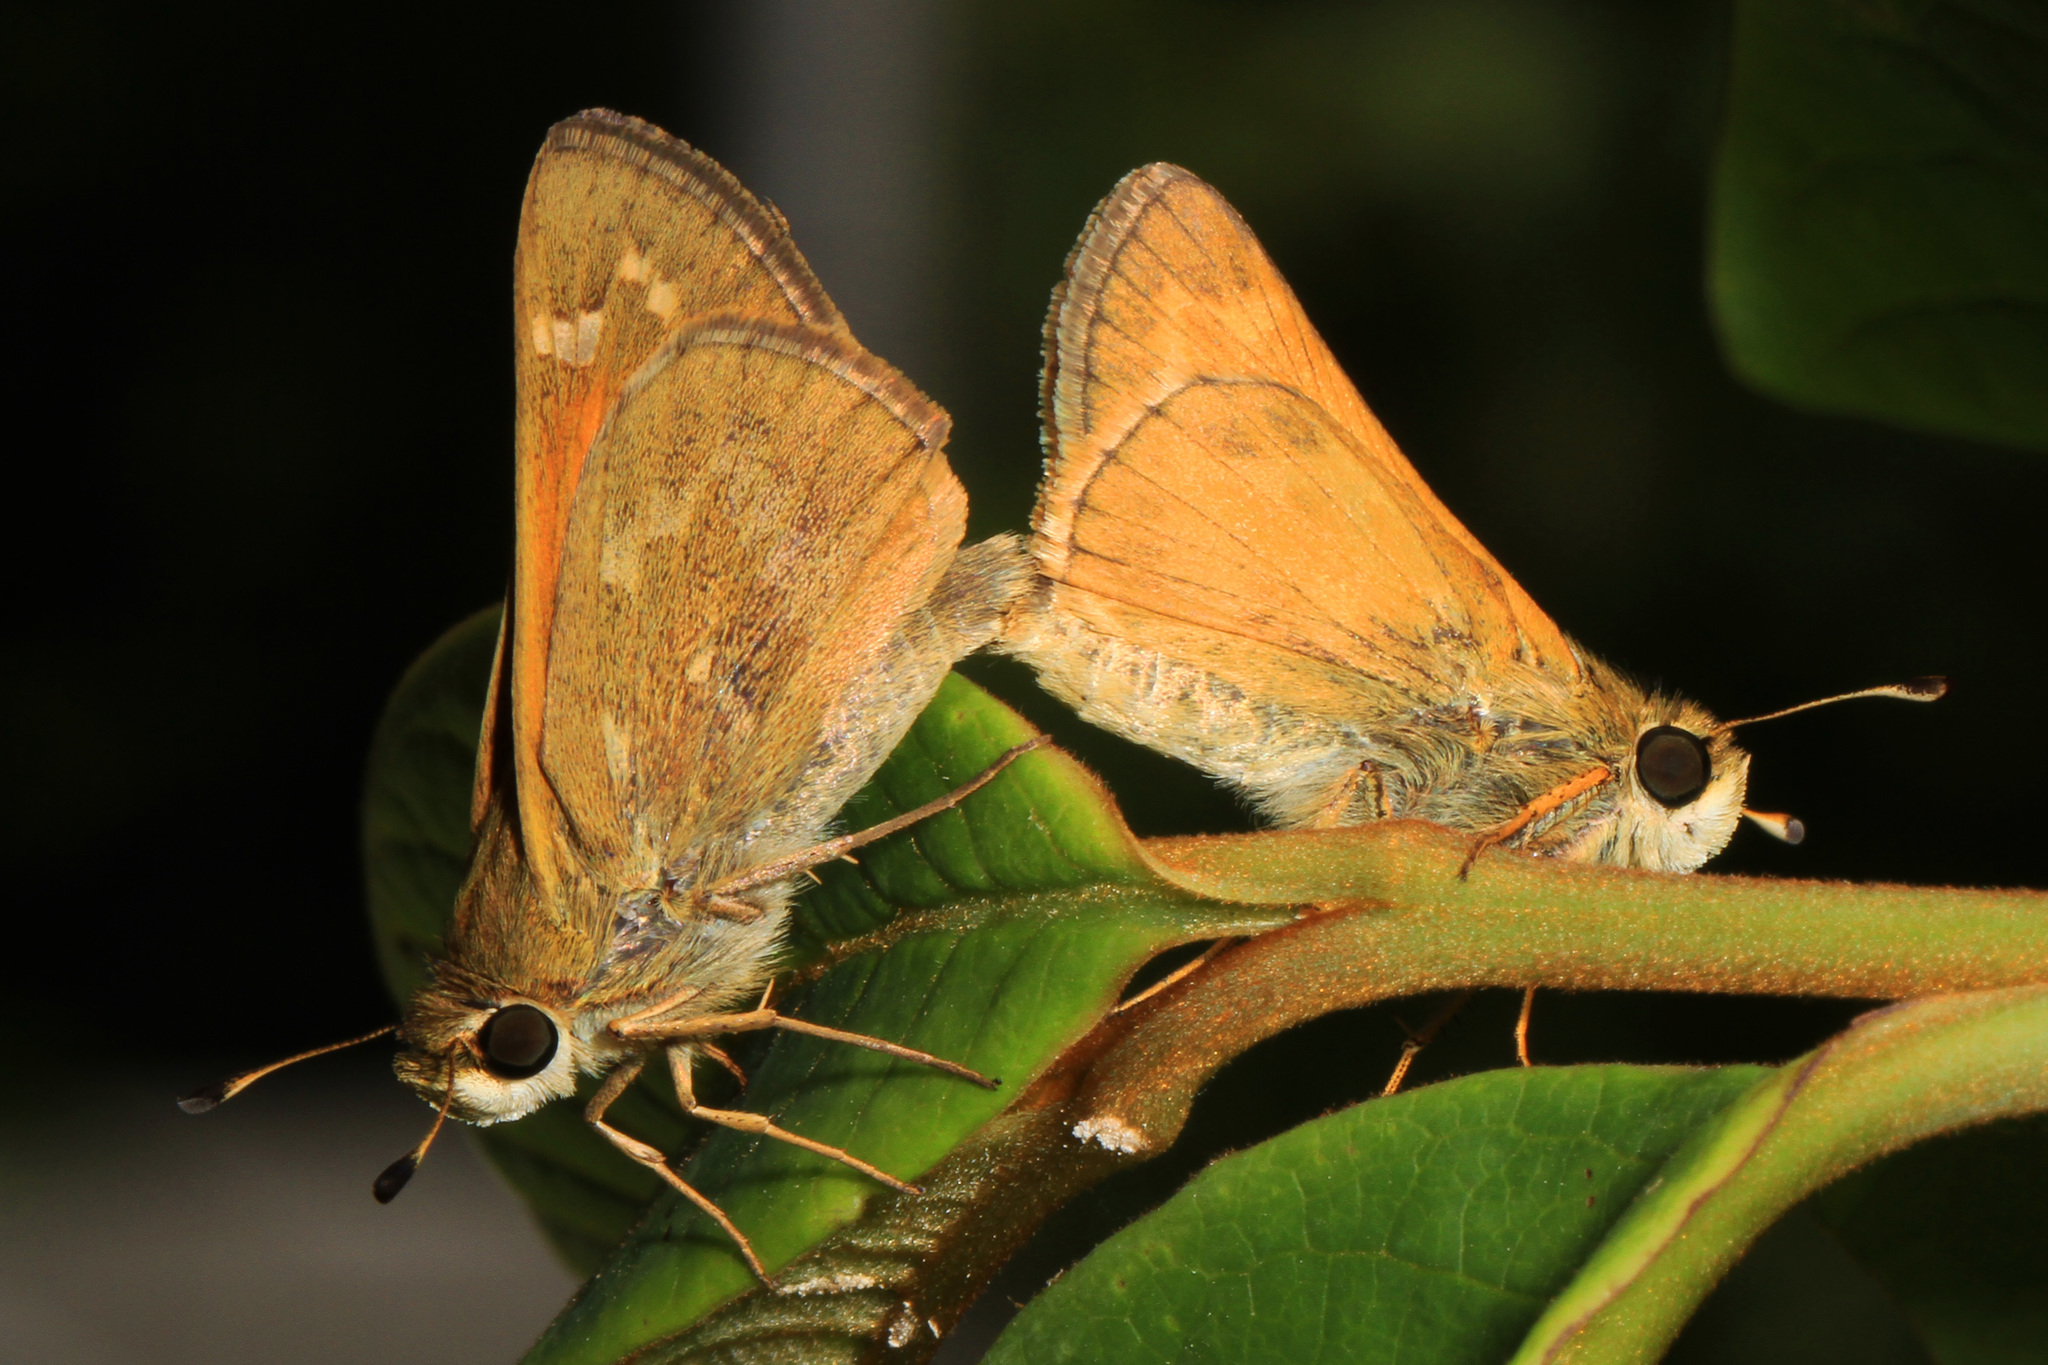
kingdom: Animalia
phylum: Arthropoda
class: Insecta
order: Lepidoptera
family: Hesperiidae
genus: Atalopedes
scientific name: Atalopedes
